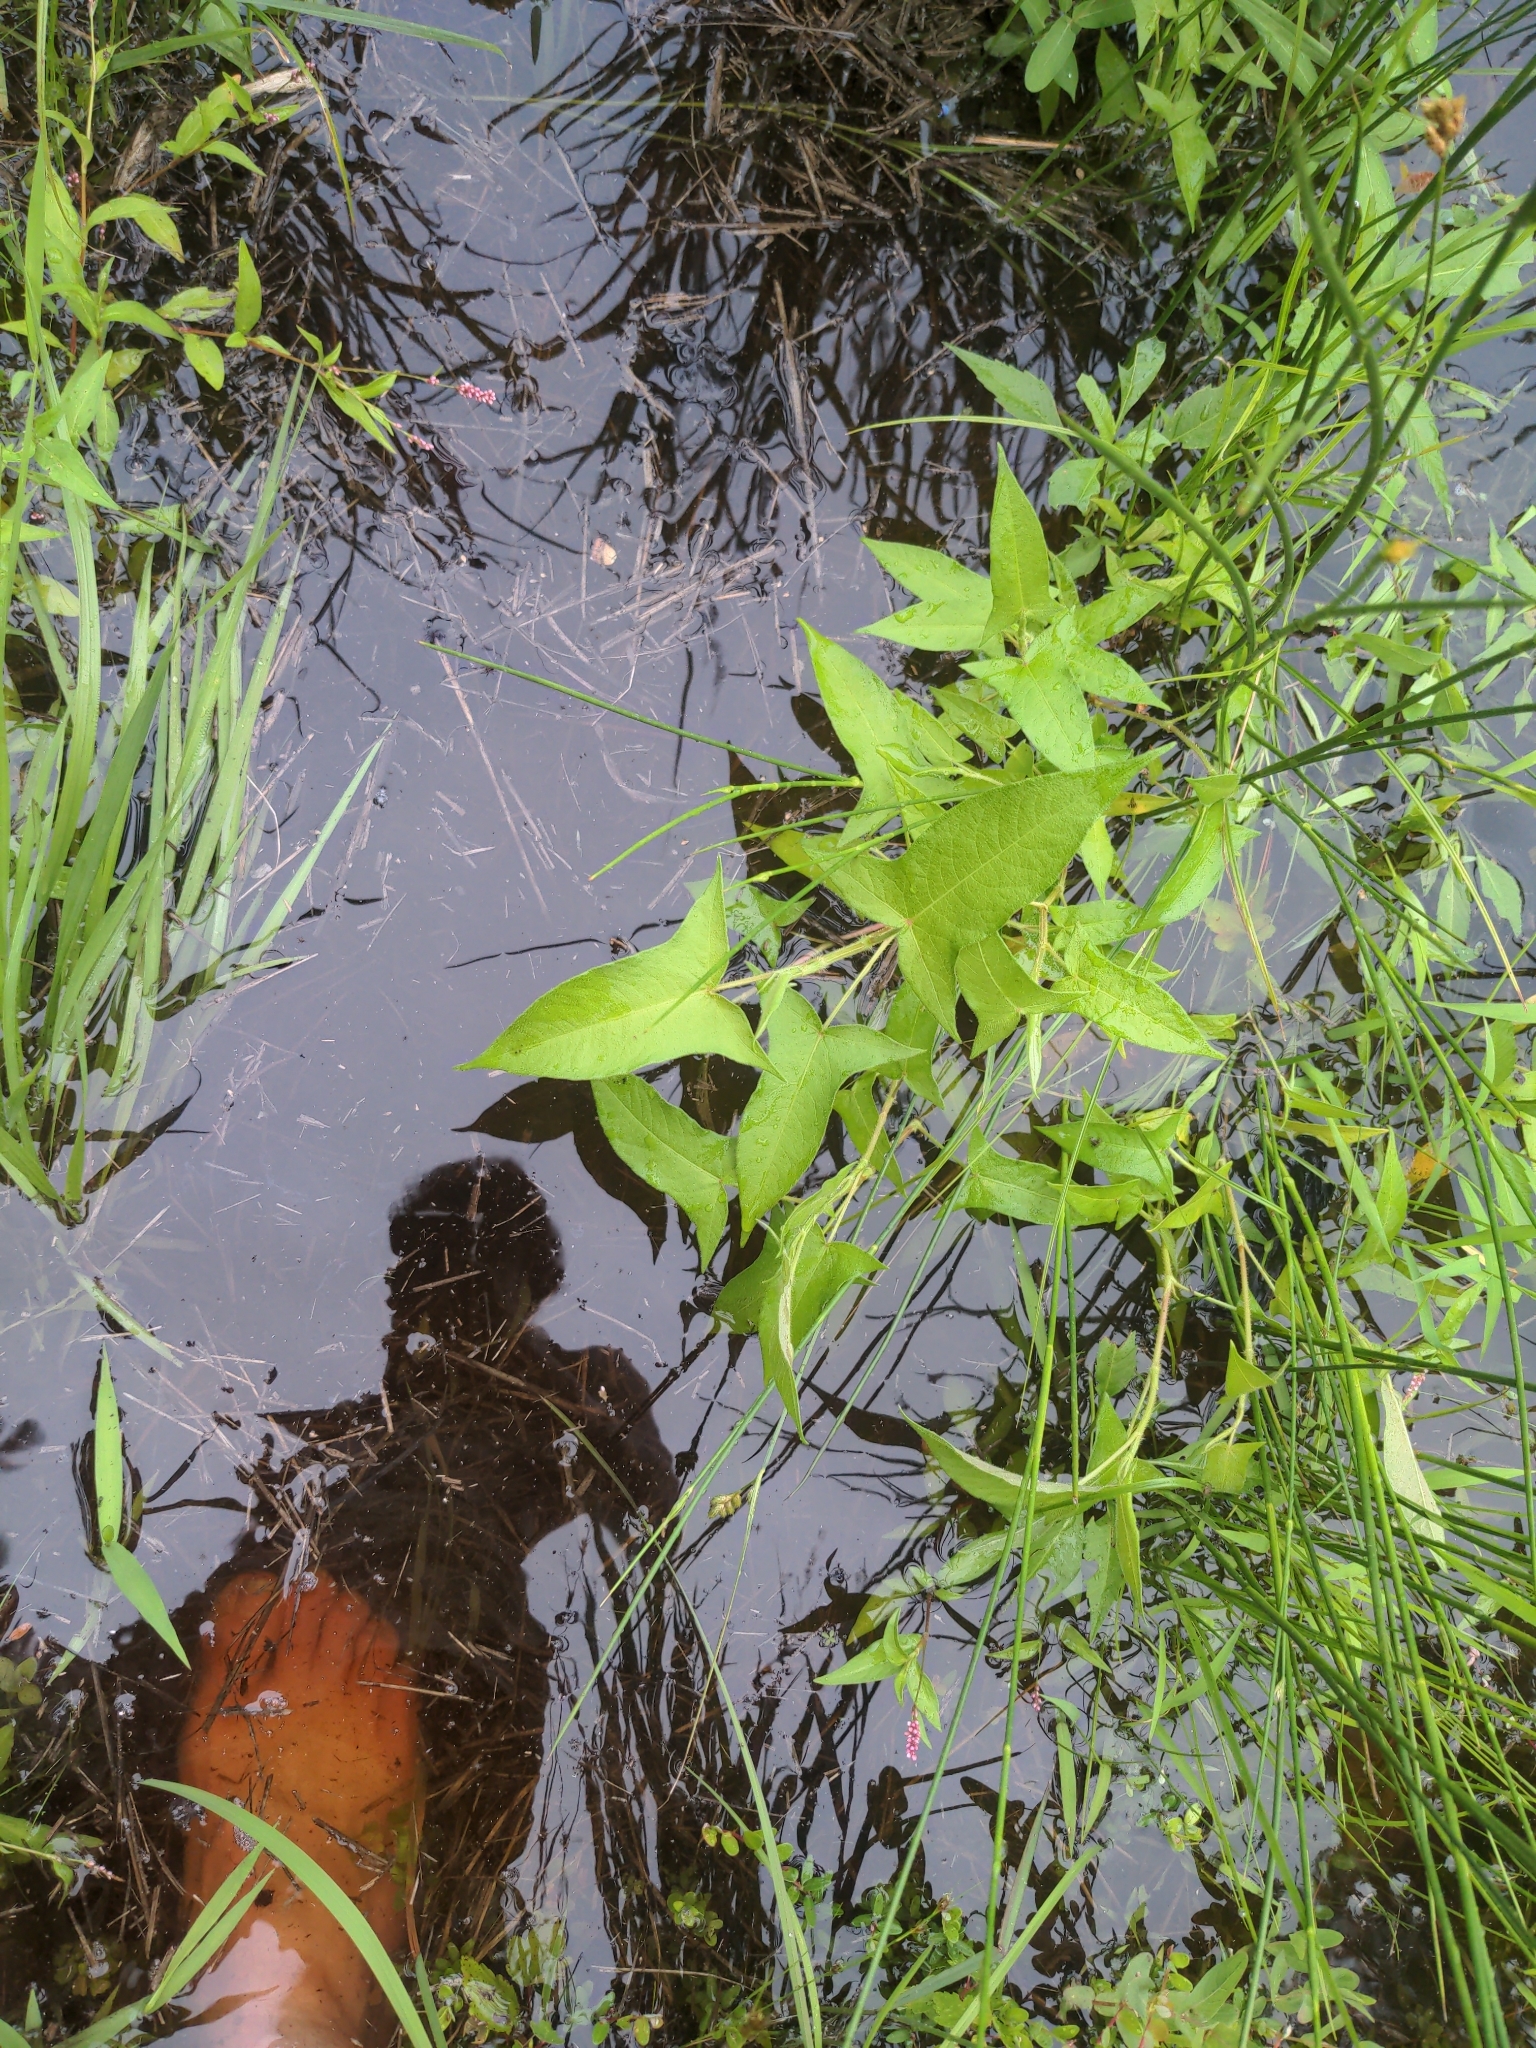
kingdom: Plantae
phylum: Tracheophyta
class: Magnoliopsida
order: Caryophyllales
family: Polygonaceae
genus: Persicaria
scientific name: Persicaria arifolia
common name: Halberd-leaved tear-thumb
